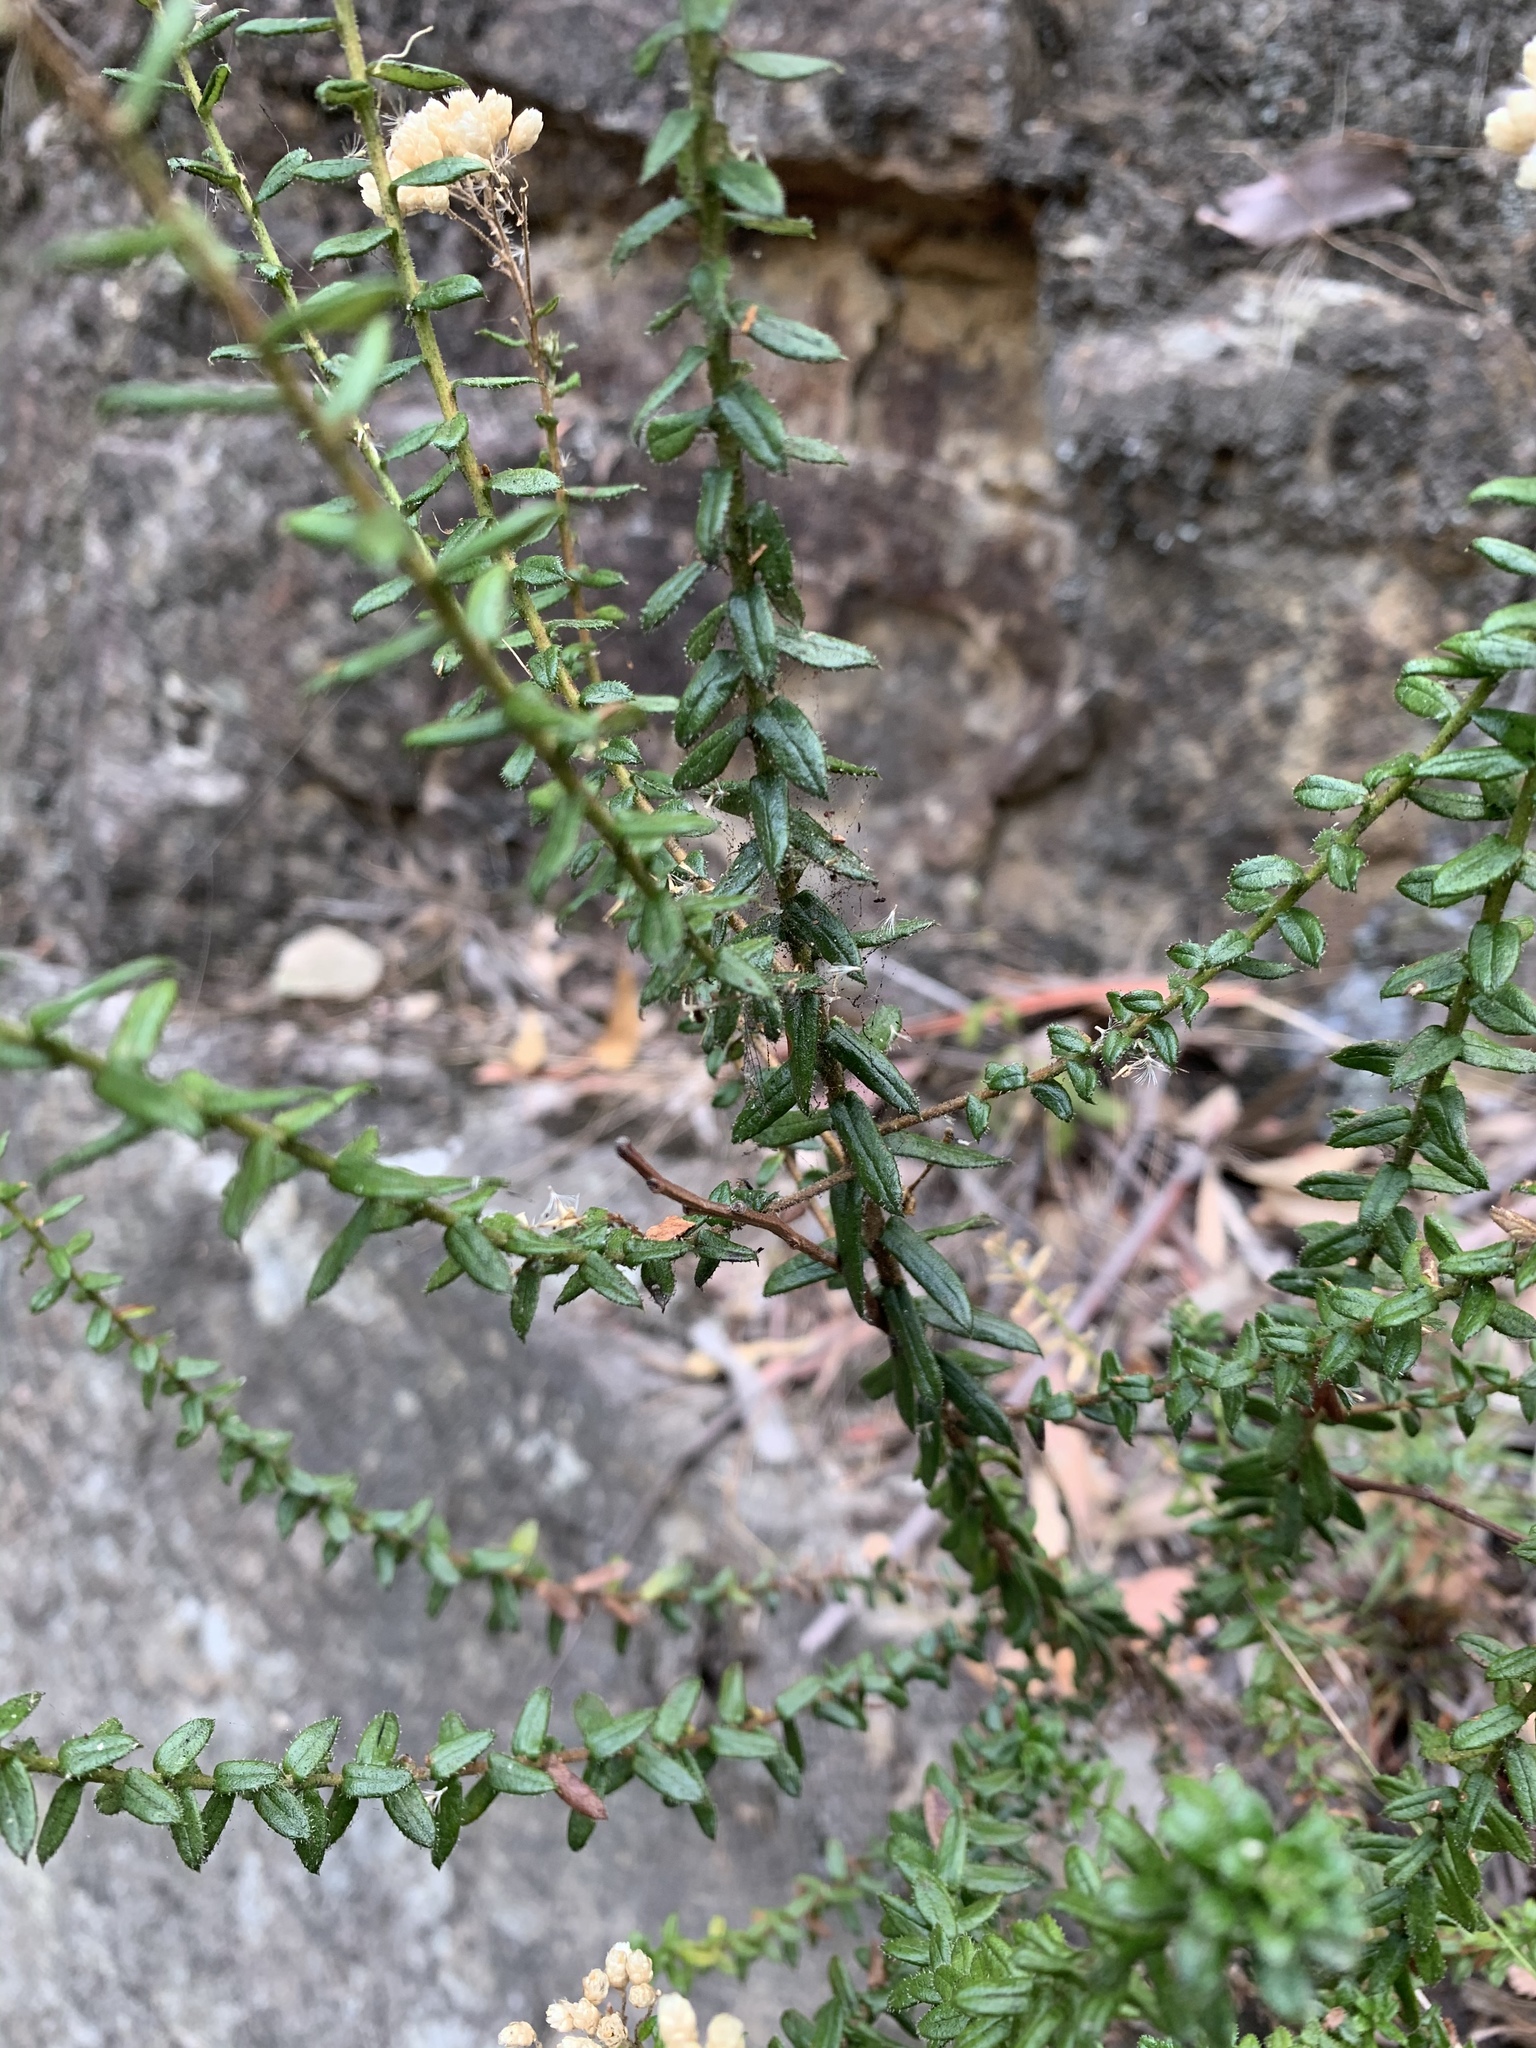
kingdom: Plantae
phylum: Tracheophyta
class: Magnoliopsida
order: Asterales
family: Asteraceae
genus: Cassinia
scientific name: Cassinia denticulata
